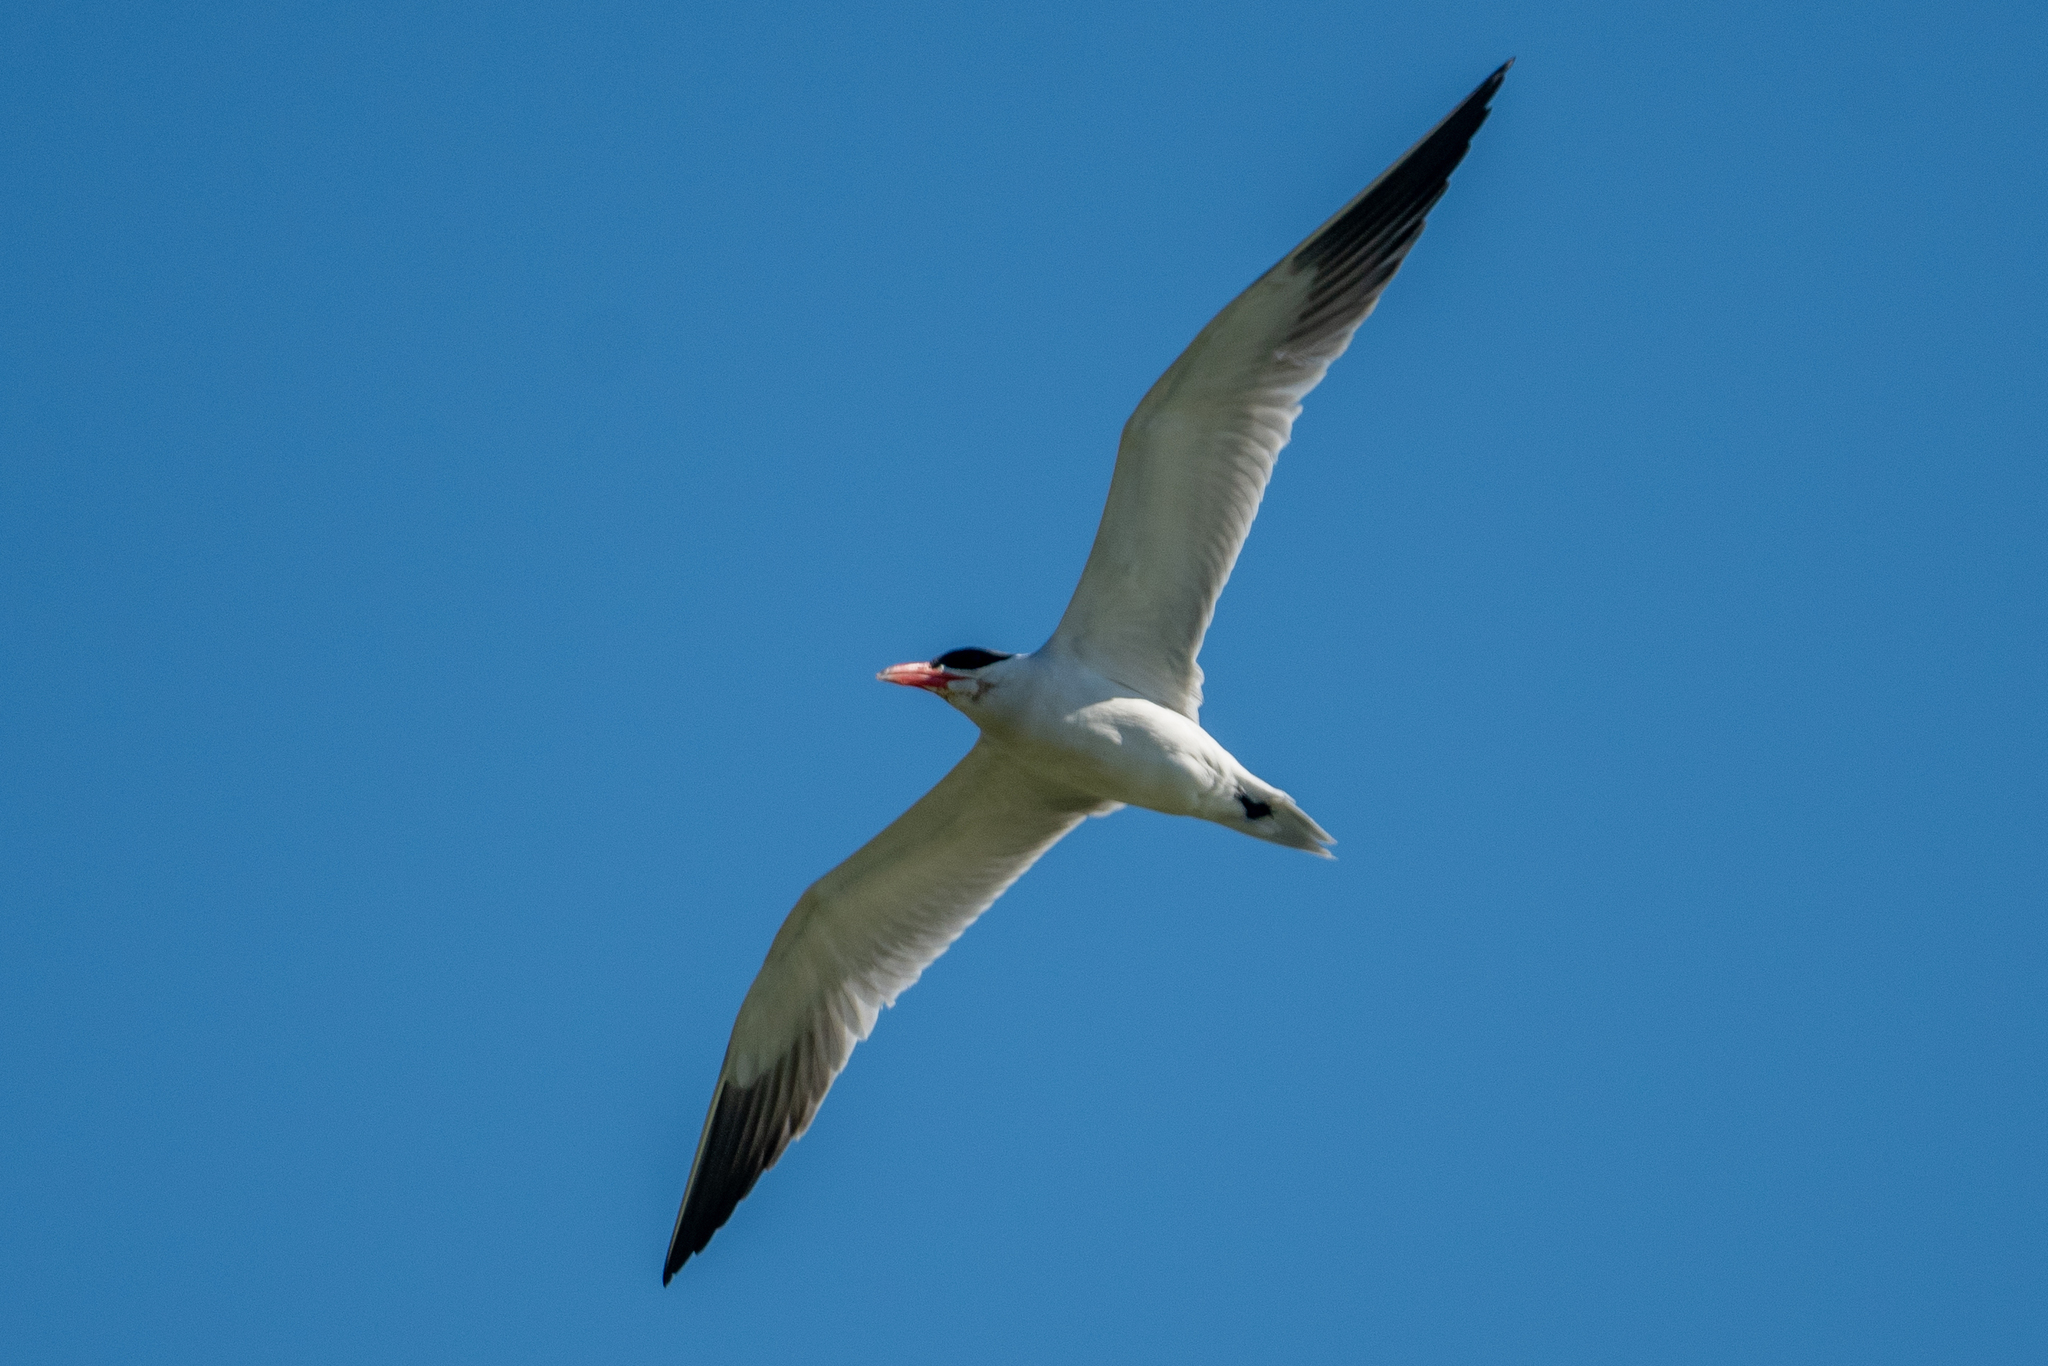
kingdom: Animalia
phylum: Chordata
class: Aves
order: Charadriiformes
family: Laridae
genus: Hydroprogne
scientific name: Hydroprogne caspia
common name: Caspian tern
